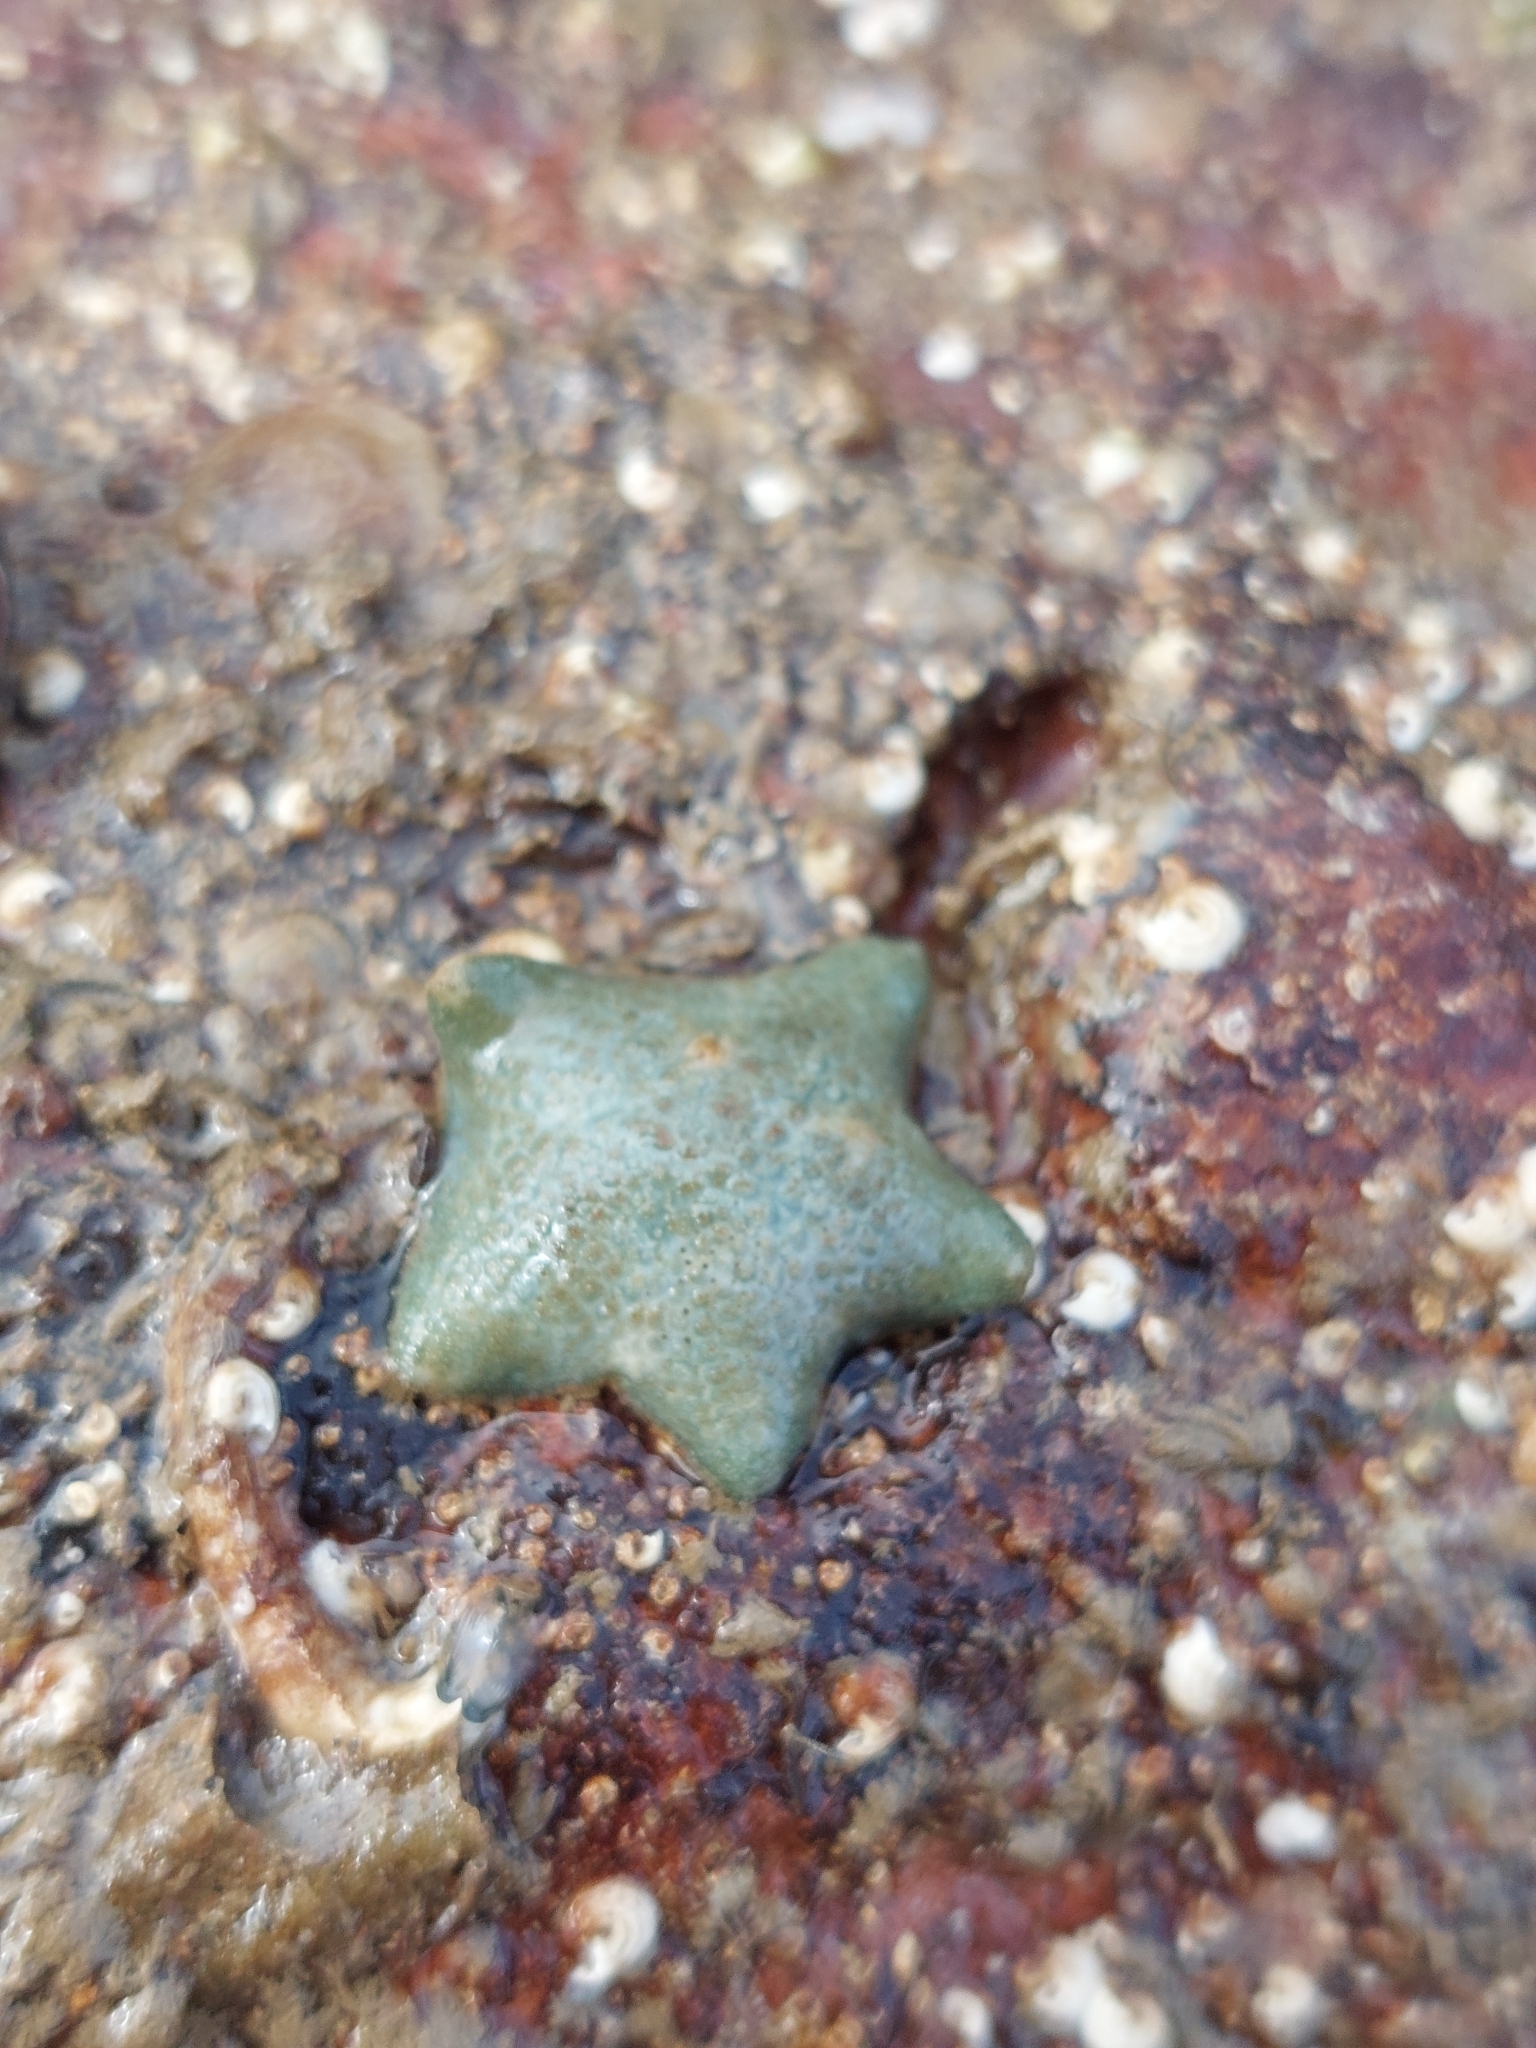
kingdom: Animalia
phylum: Echinodermata
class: Asteroidea
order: Valvatida
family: Asterinidae
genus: Asterina
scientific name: Asterina gibbosa
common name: Cushion star
